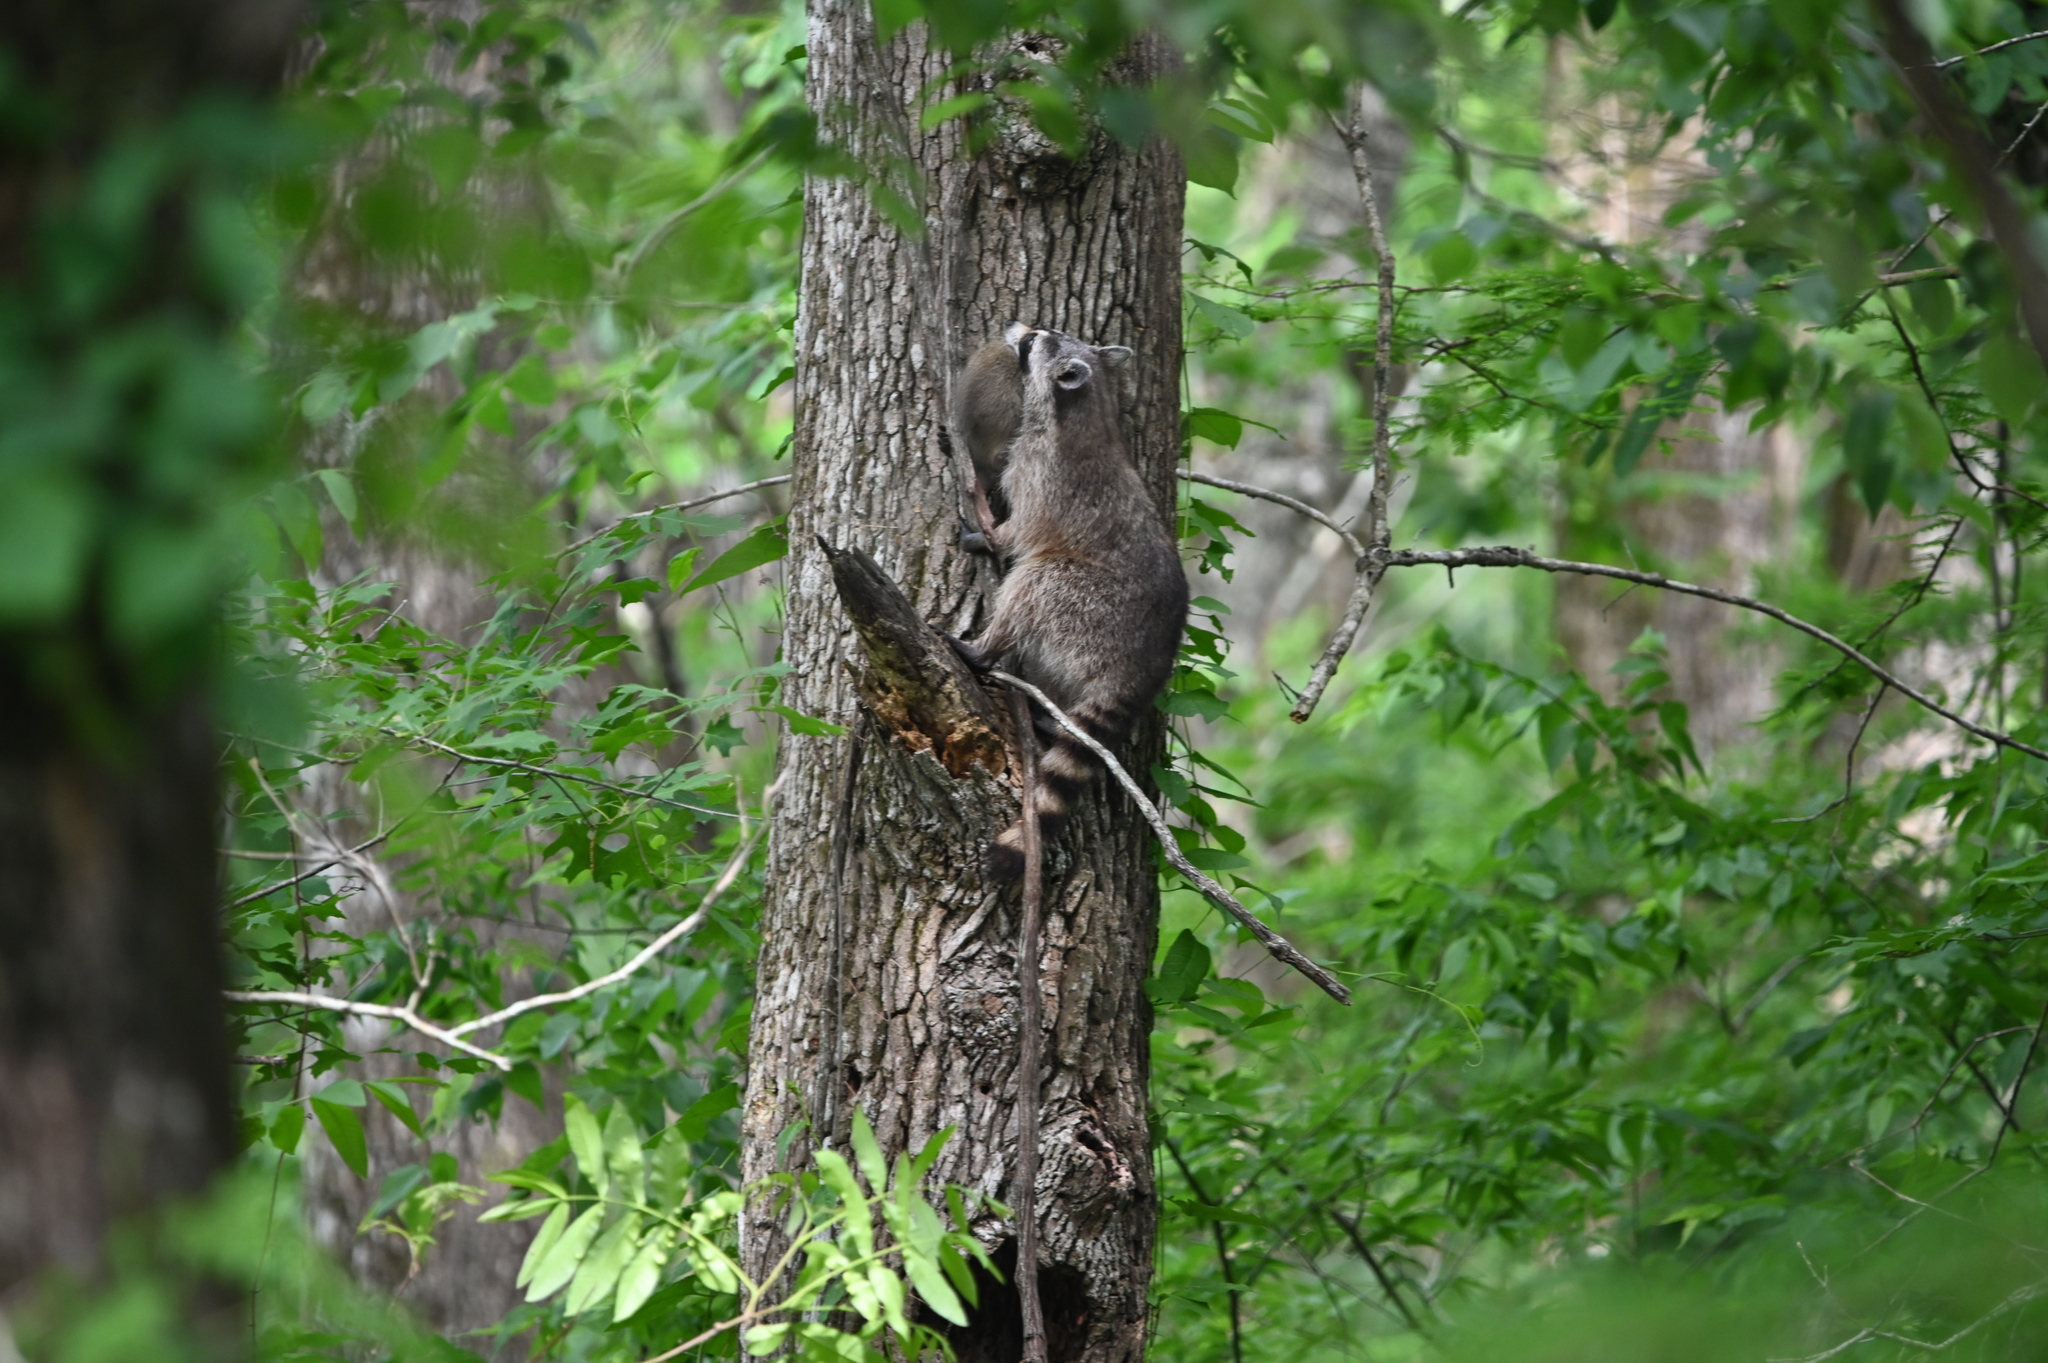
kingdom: Animalia
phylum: Chordata
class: Mammalia
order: Carnivora
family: Procyonidae
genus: Procyon
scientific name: Procyon lotor
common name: Raccoon
